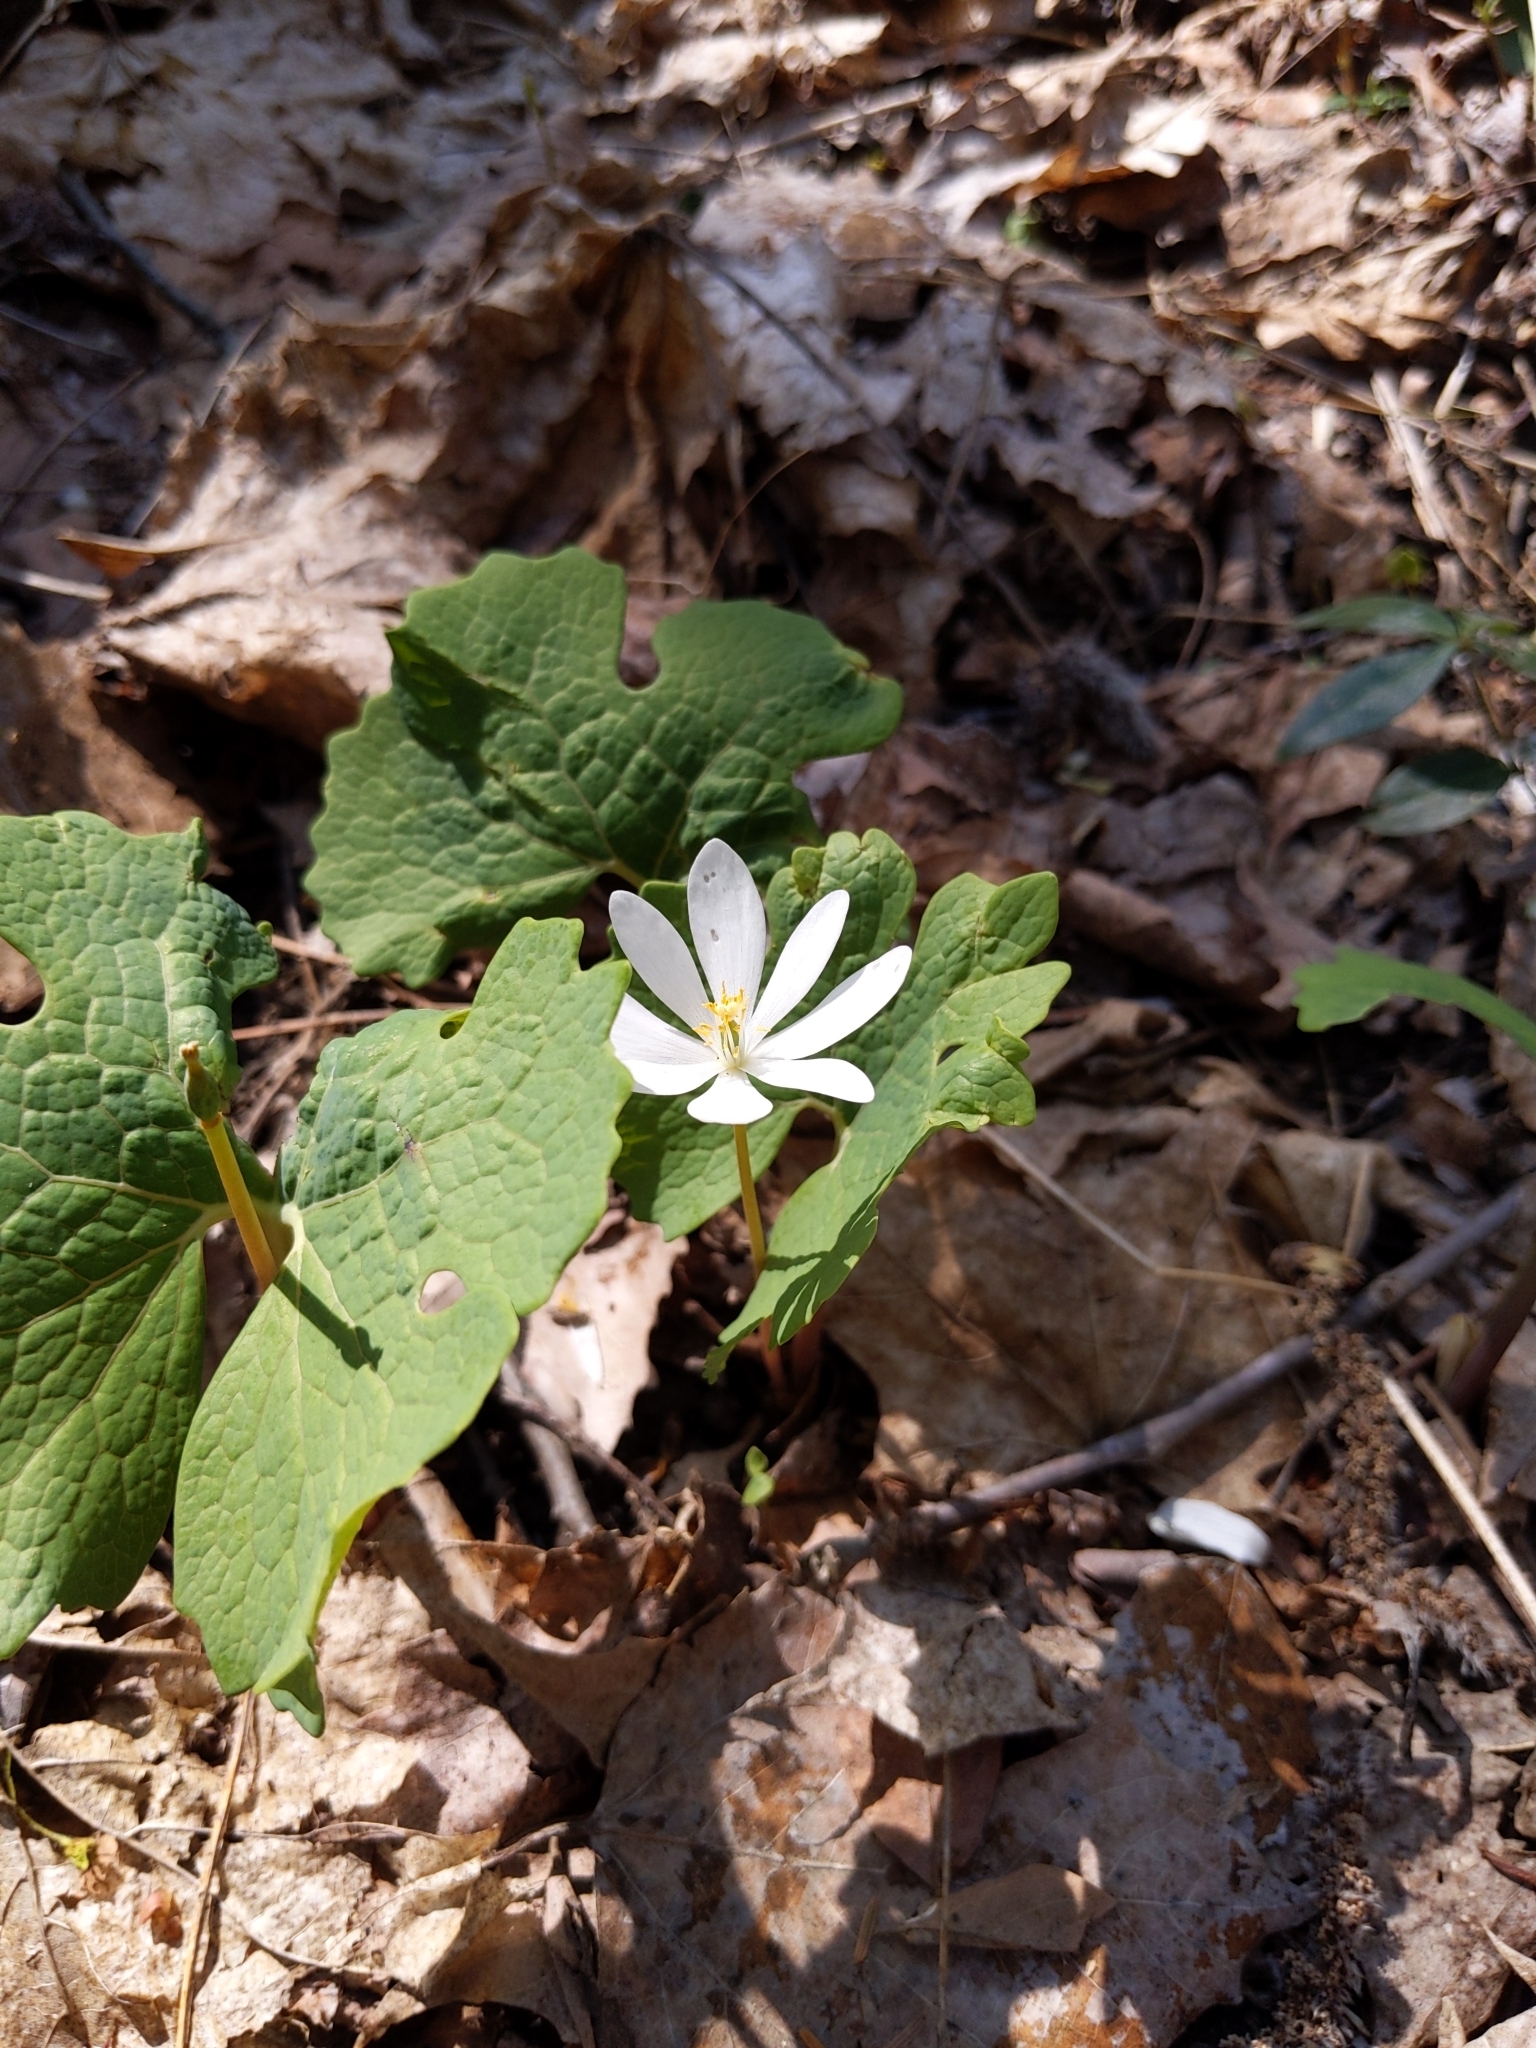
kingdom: Plantae
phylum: Tracheophyta
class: Magnoliopsida
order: Ranunculales
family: Papaveraceae
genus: Sanguinaria
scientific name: Sanguinaria canadensis
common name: Bloodroot
